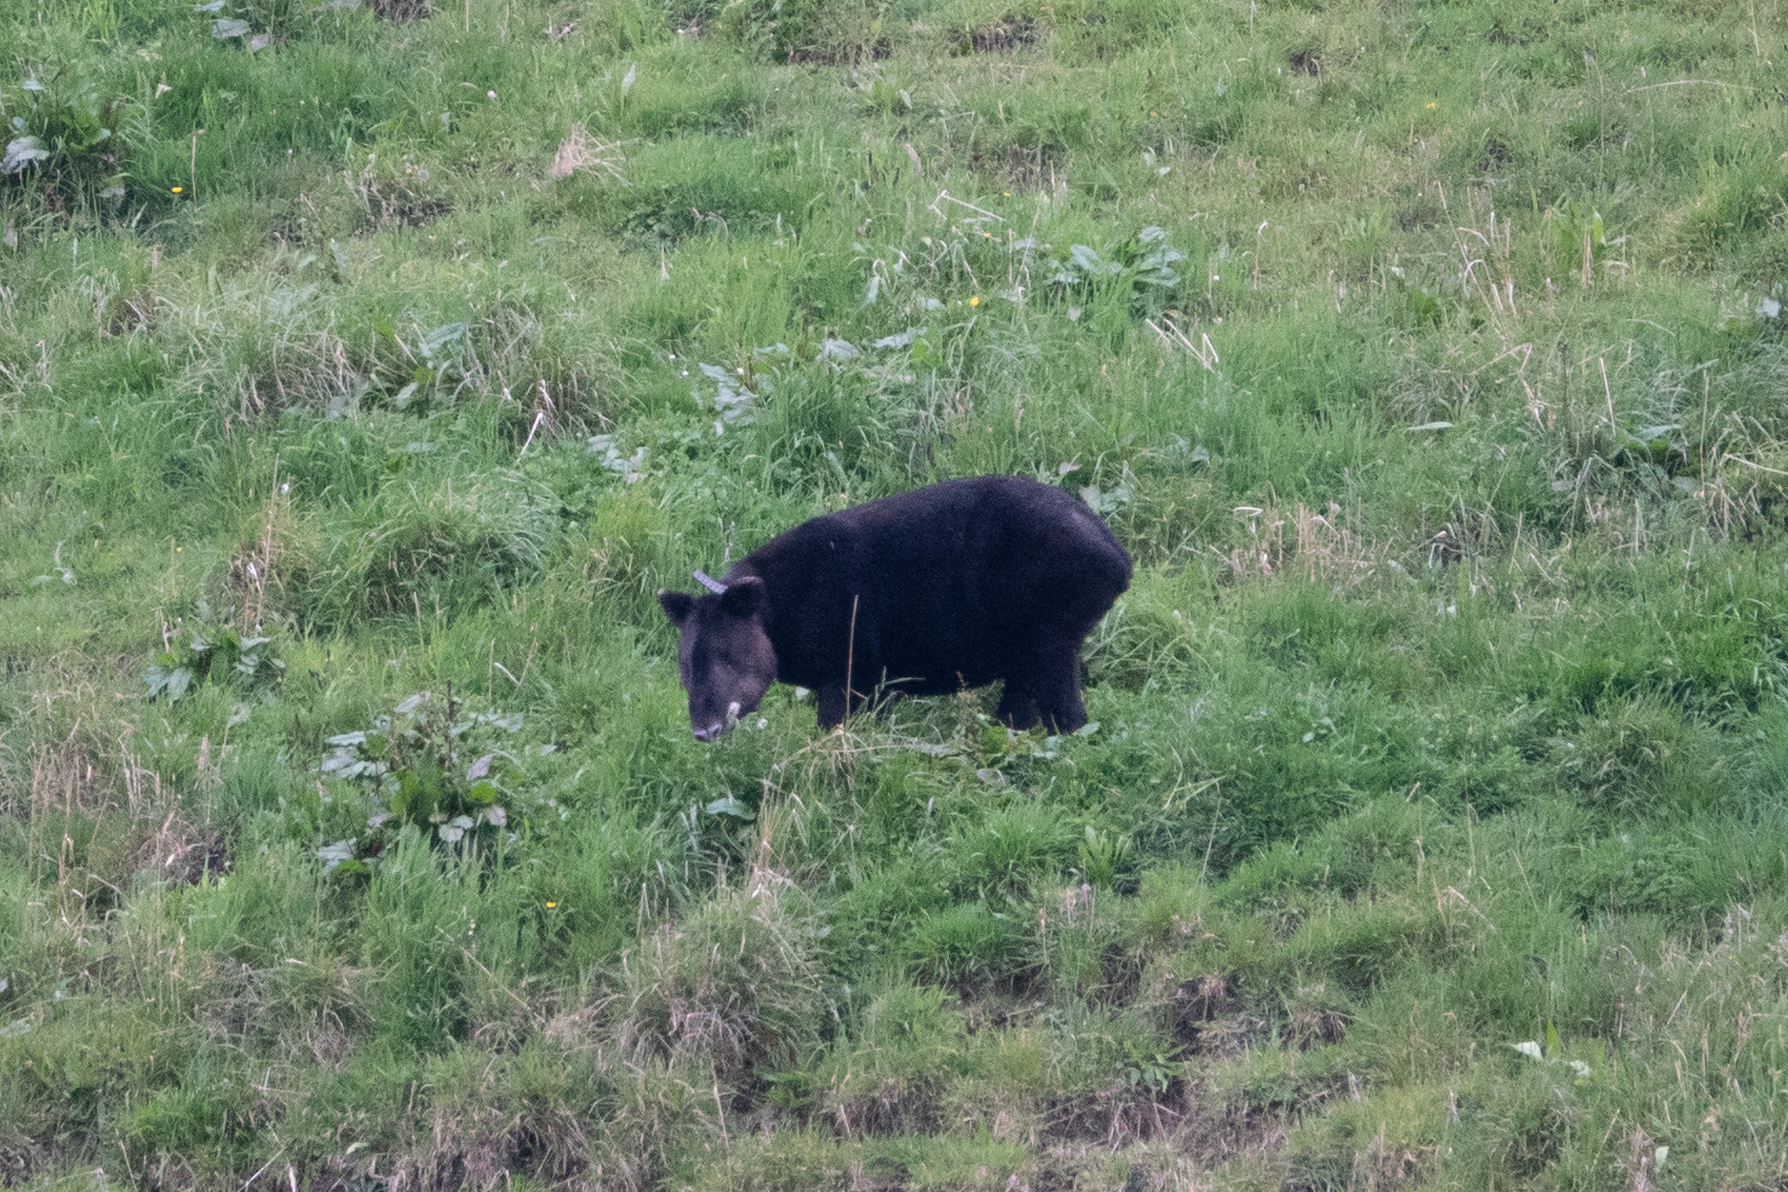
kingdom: Animalia
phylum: Chordata
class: Mammalia
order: Perissodactyla
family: Tapiridae
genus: Tapirus
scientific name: Tapirus pinchaque
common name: Mountain tapir
